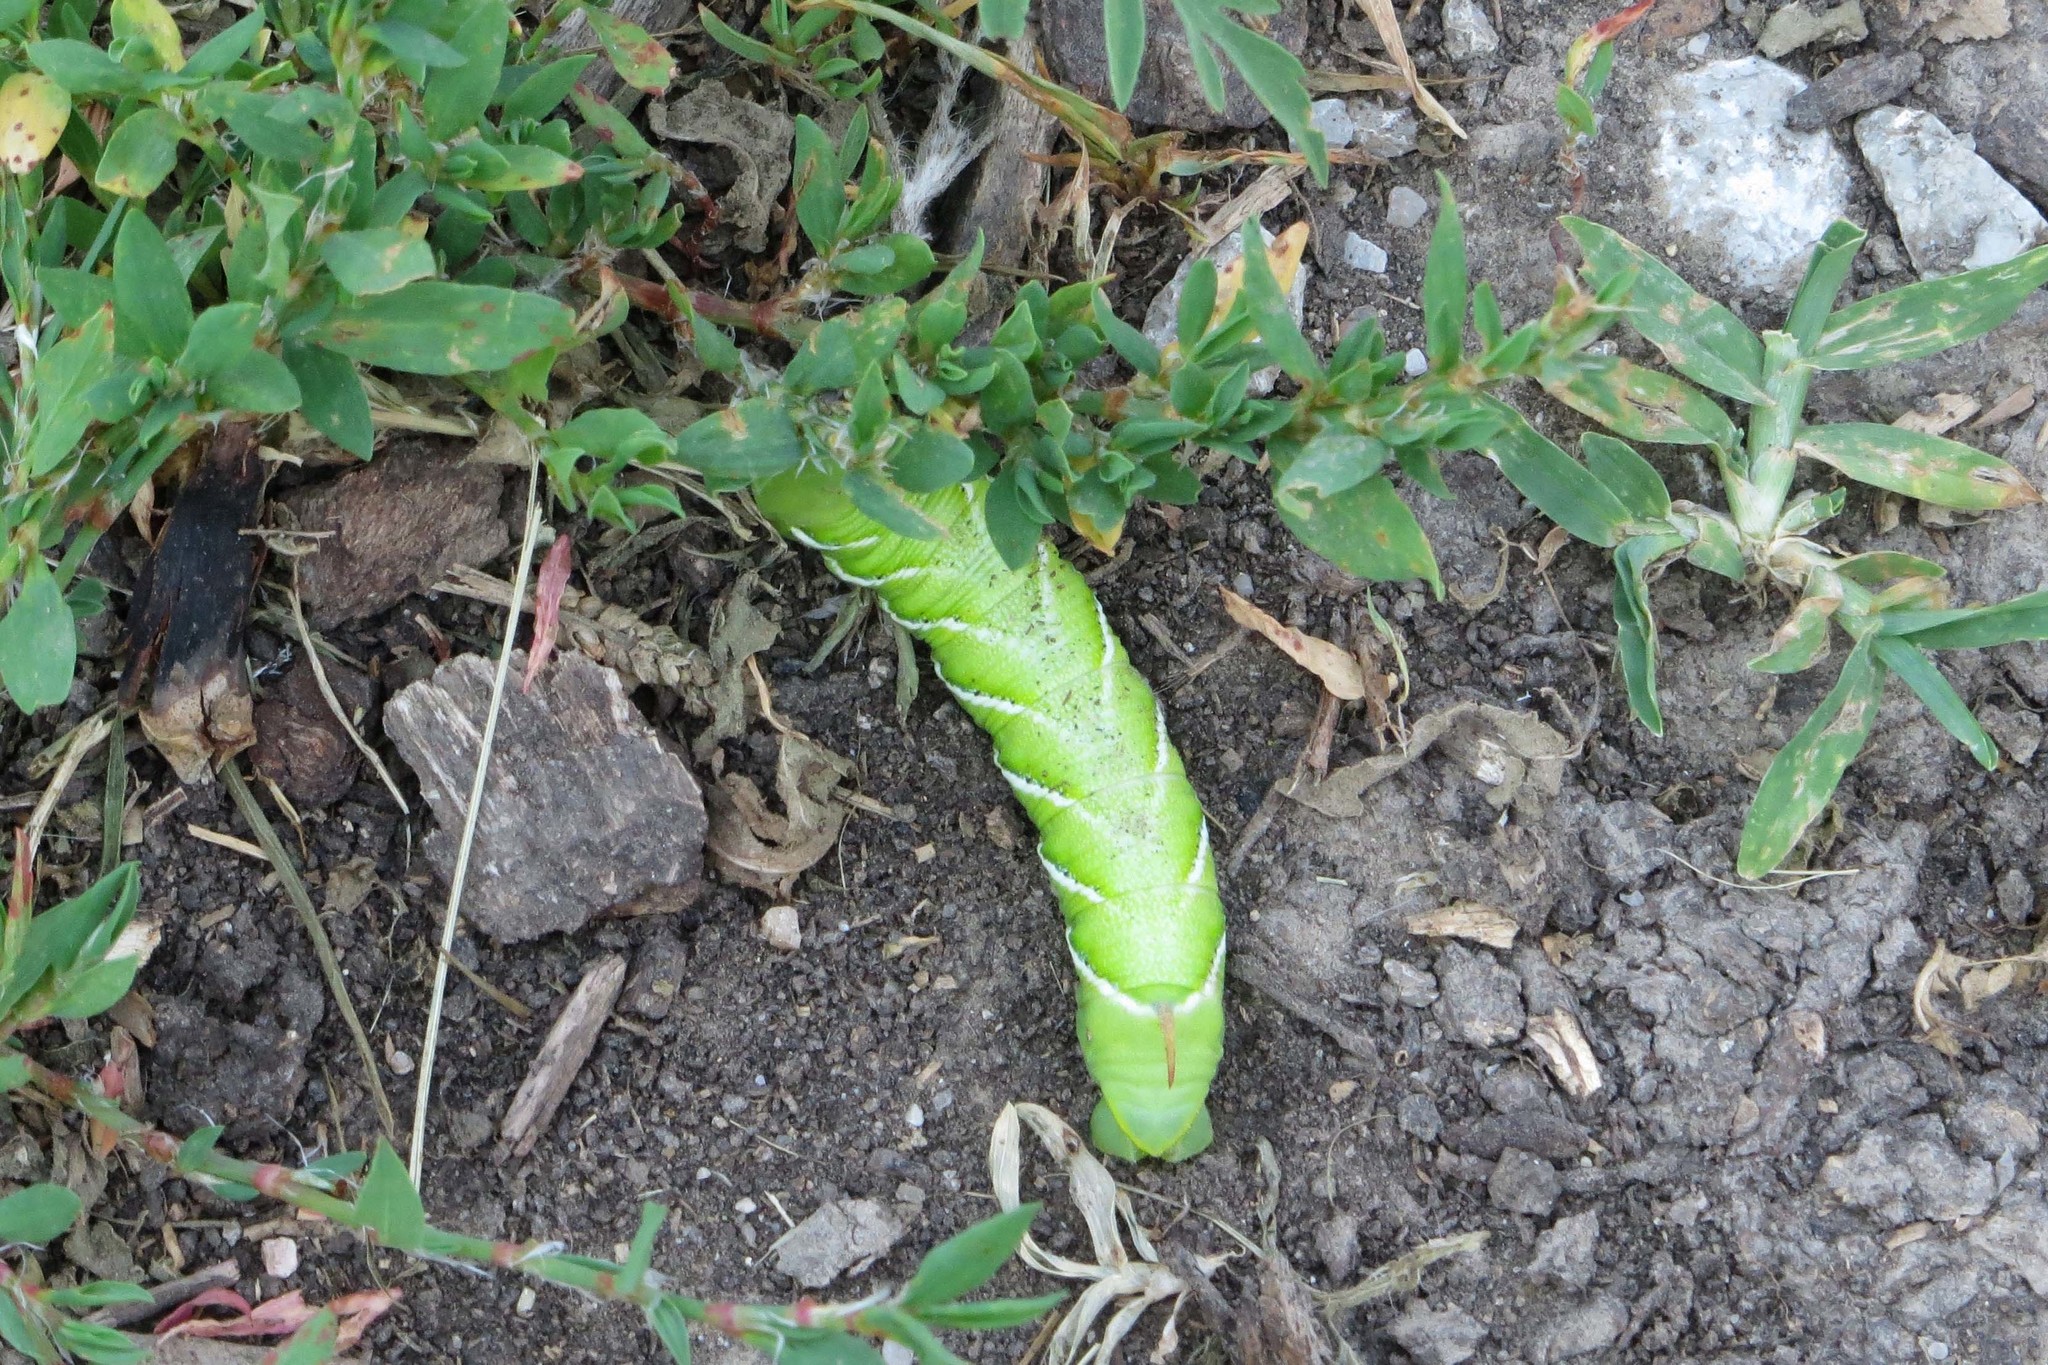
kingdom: Animalia
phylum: Arthropoda
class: Insecta
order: Lepidoptera
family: Sphingidae
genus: Manduca
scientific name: Manduca sexta
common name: Carolina sphinx
